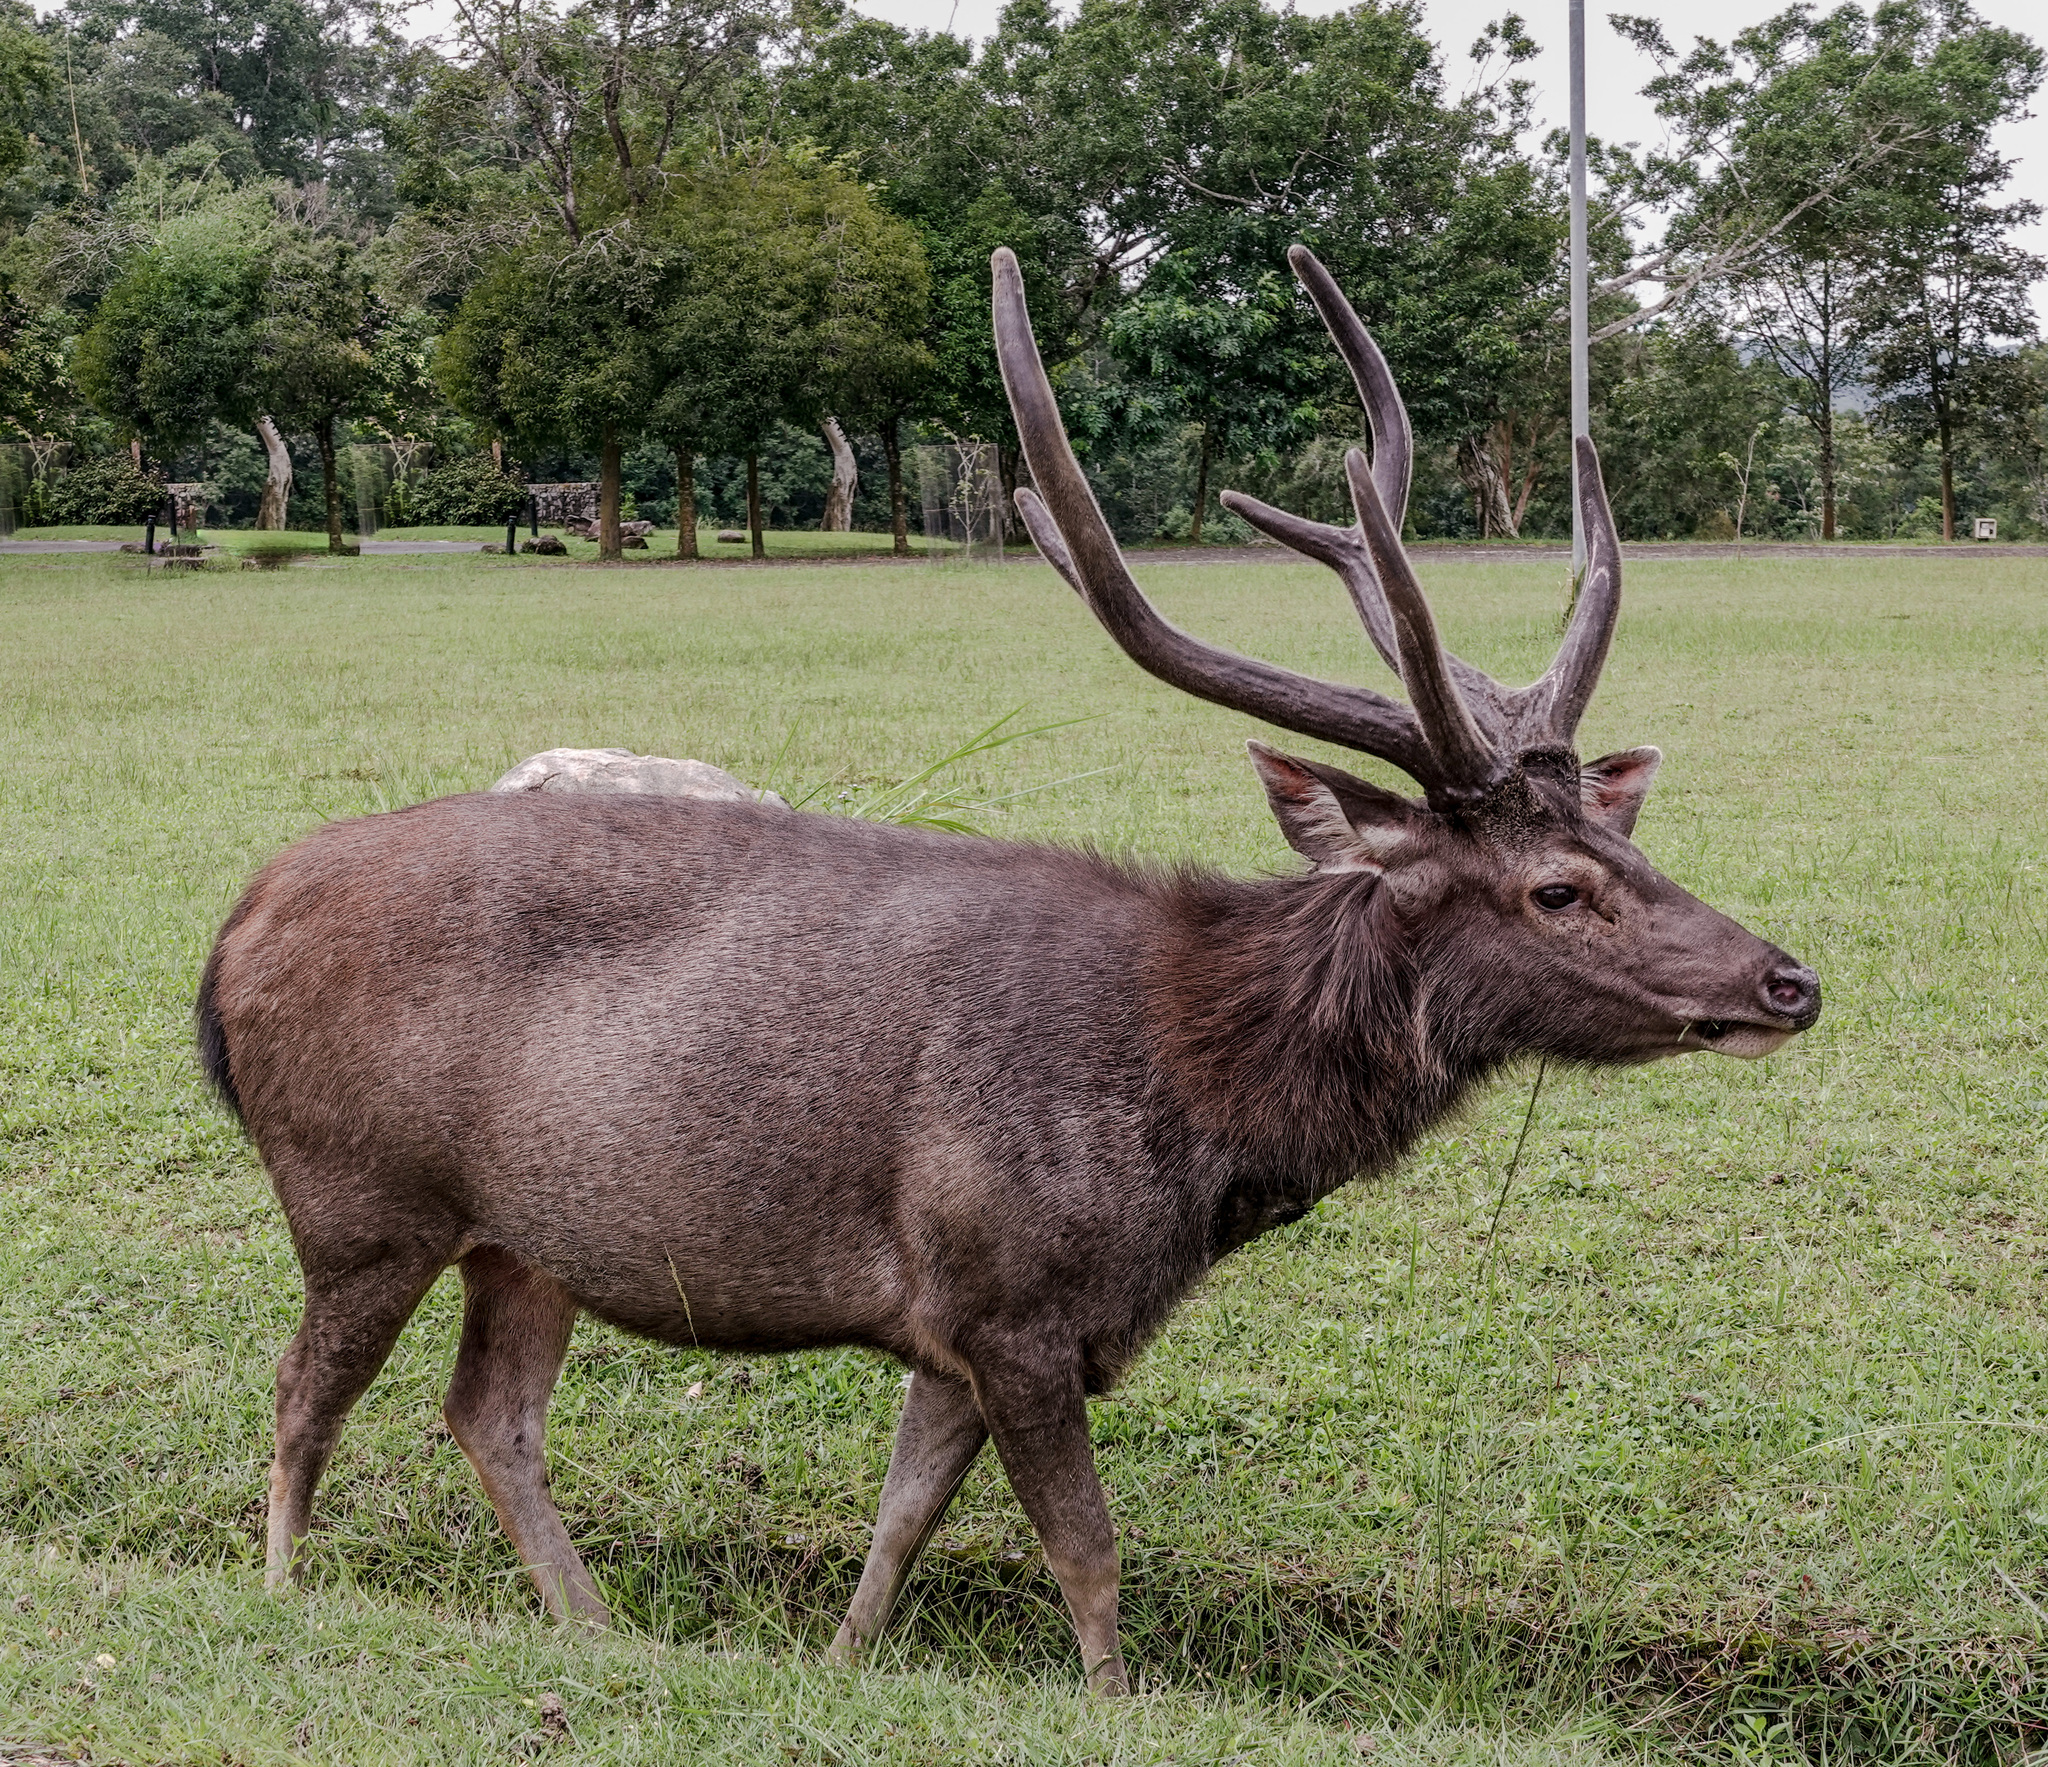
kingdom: Animalia
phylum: Chordata
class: Mammalia
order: Artiodactyla
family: Cervidae
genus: Rusa
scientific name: Rusa unicolor
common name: Sambar
